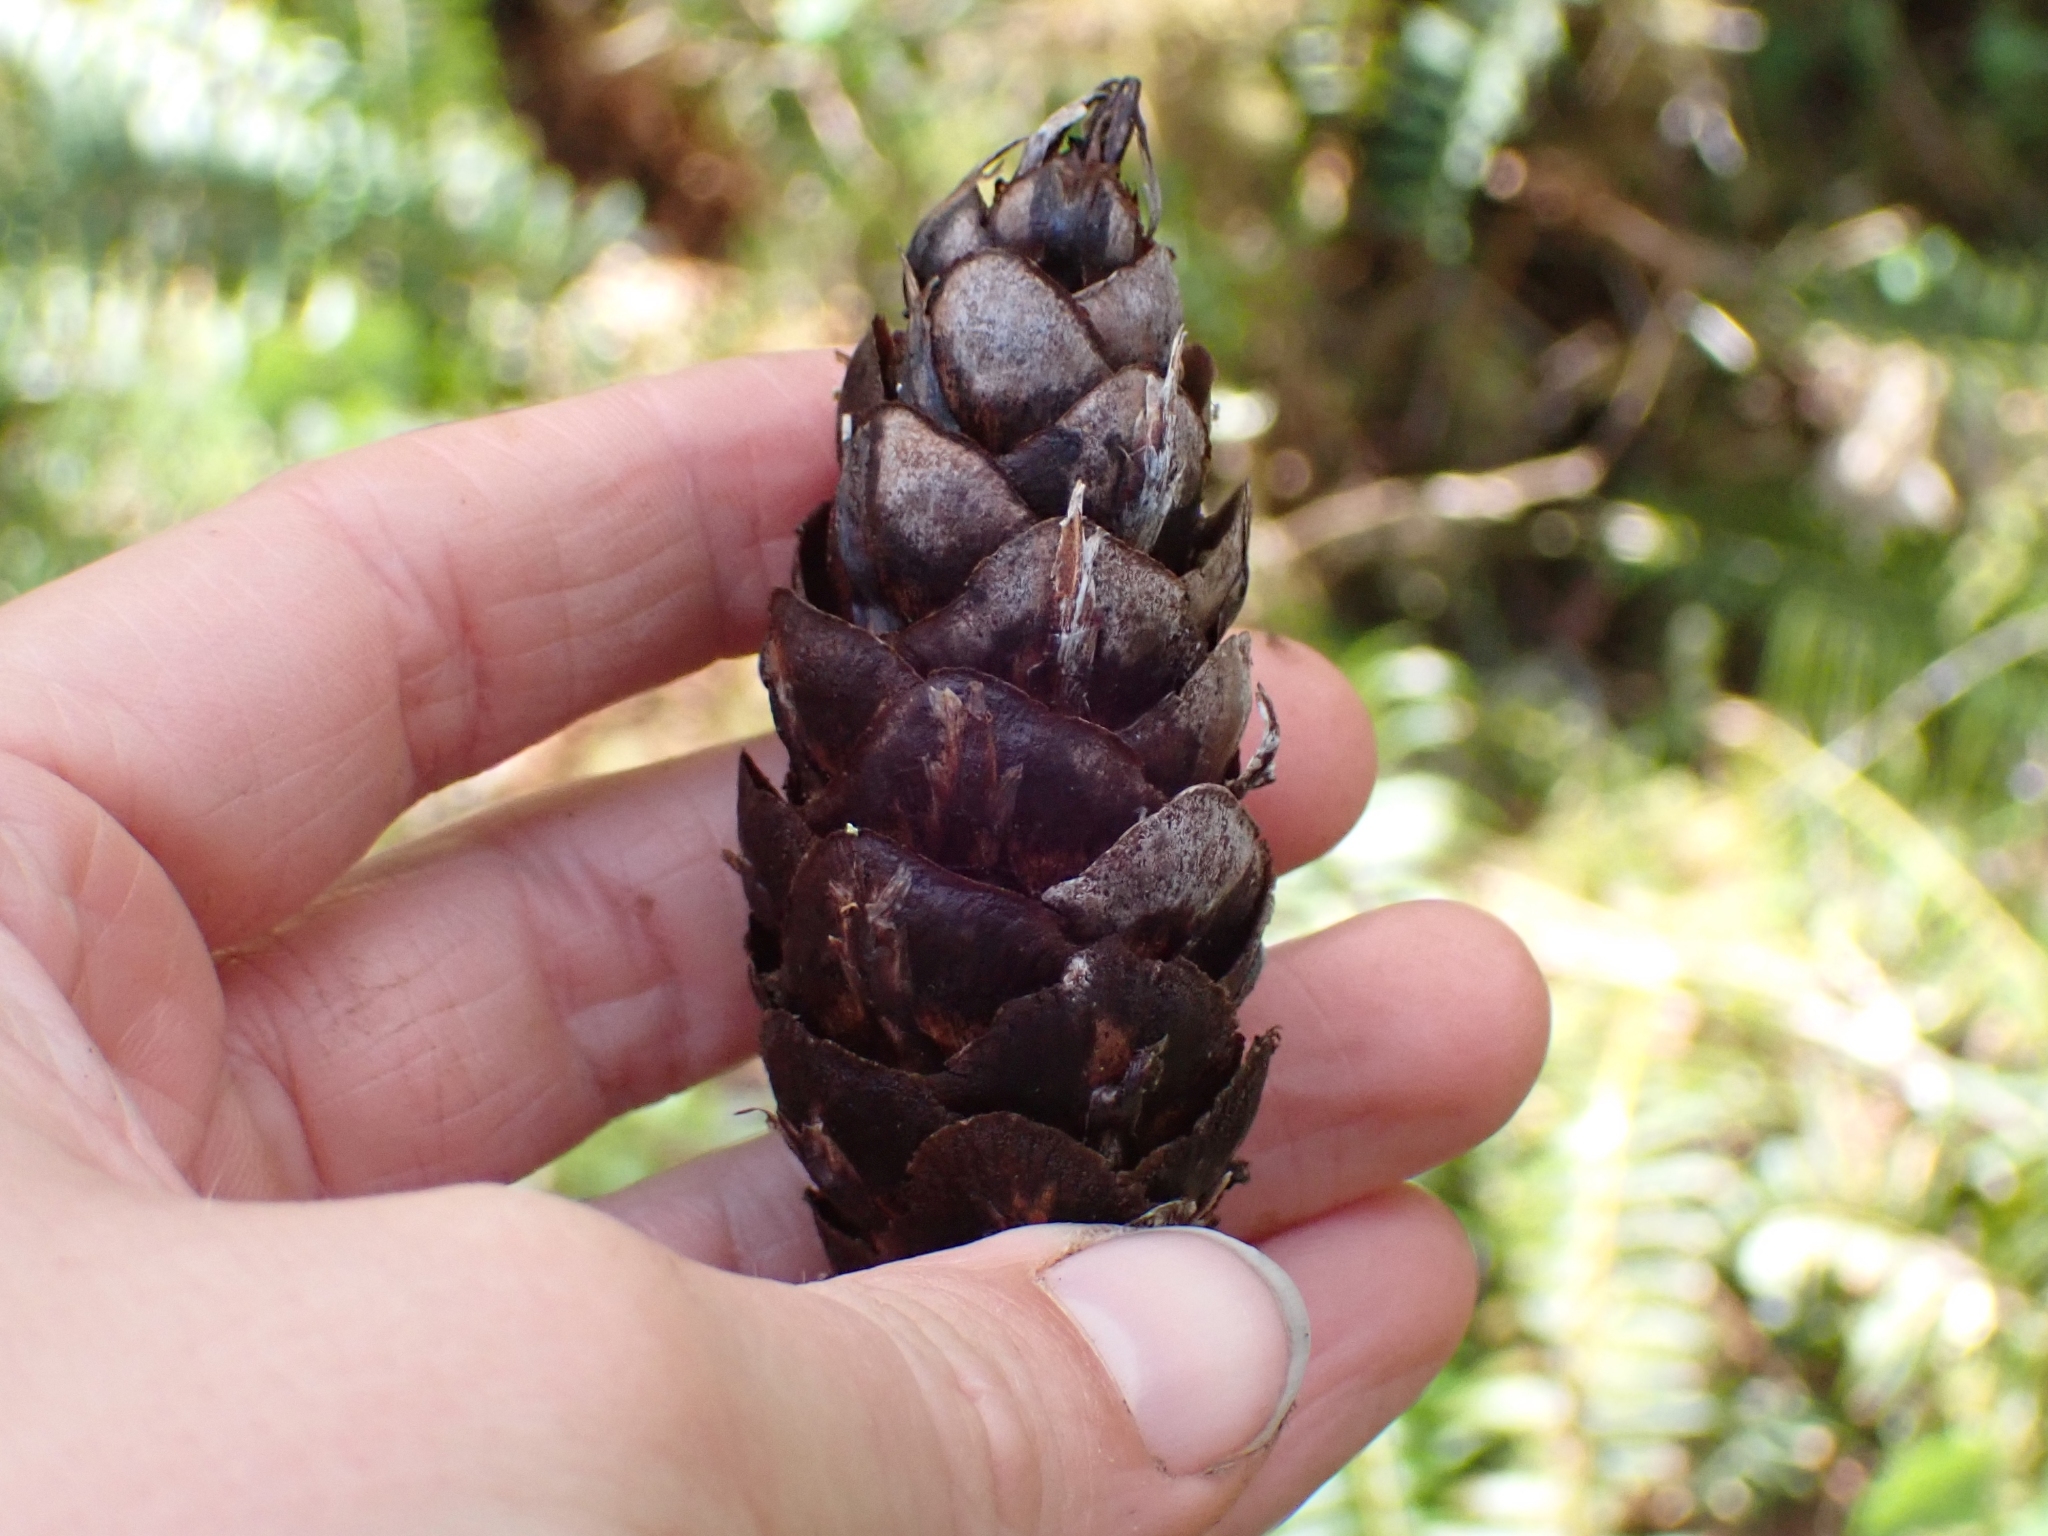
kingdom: Plantae
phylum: Tracheophyta
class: Pinopsida
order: Pinales
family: Pinaceae
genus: Pseudotsuga
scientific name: Pseudotsuga menziesii
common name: Douglas fir
